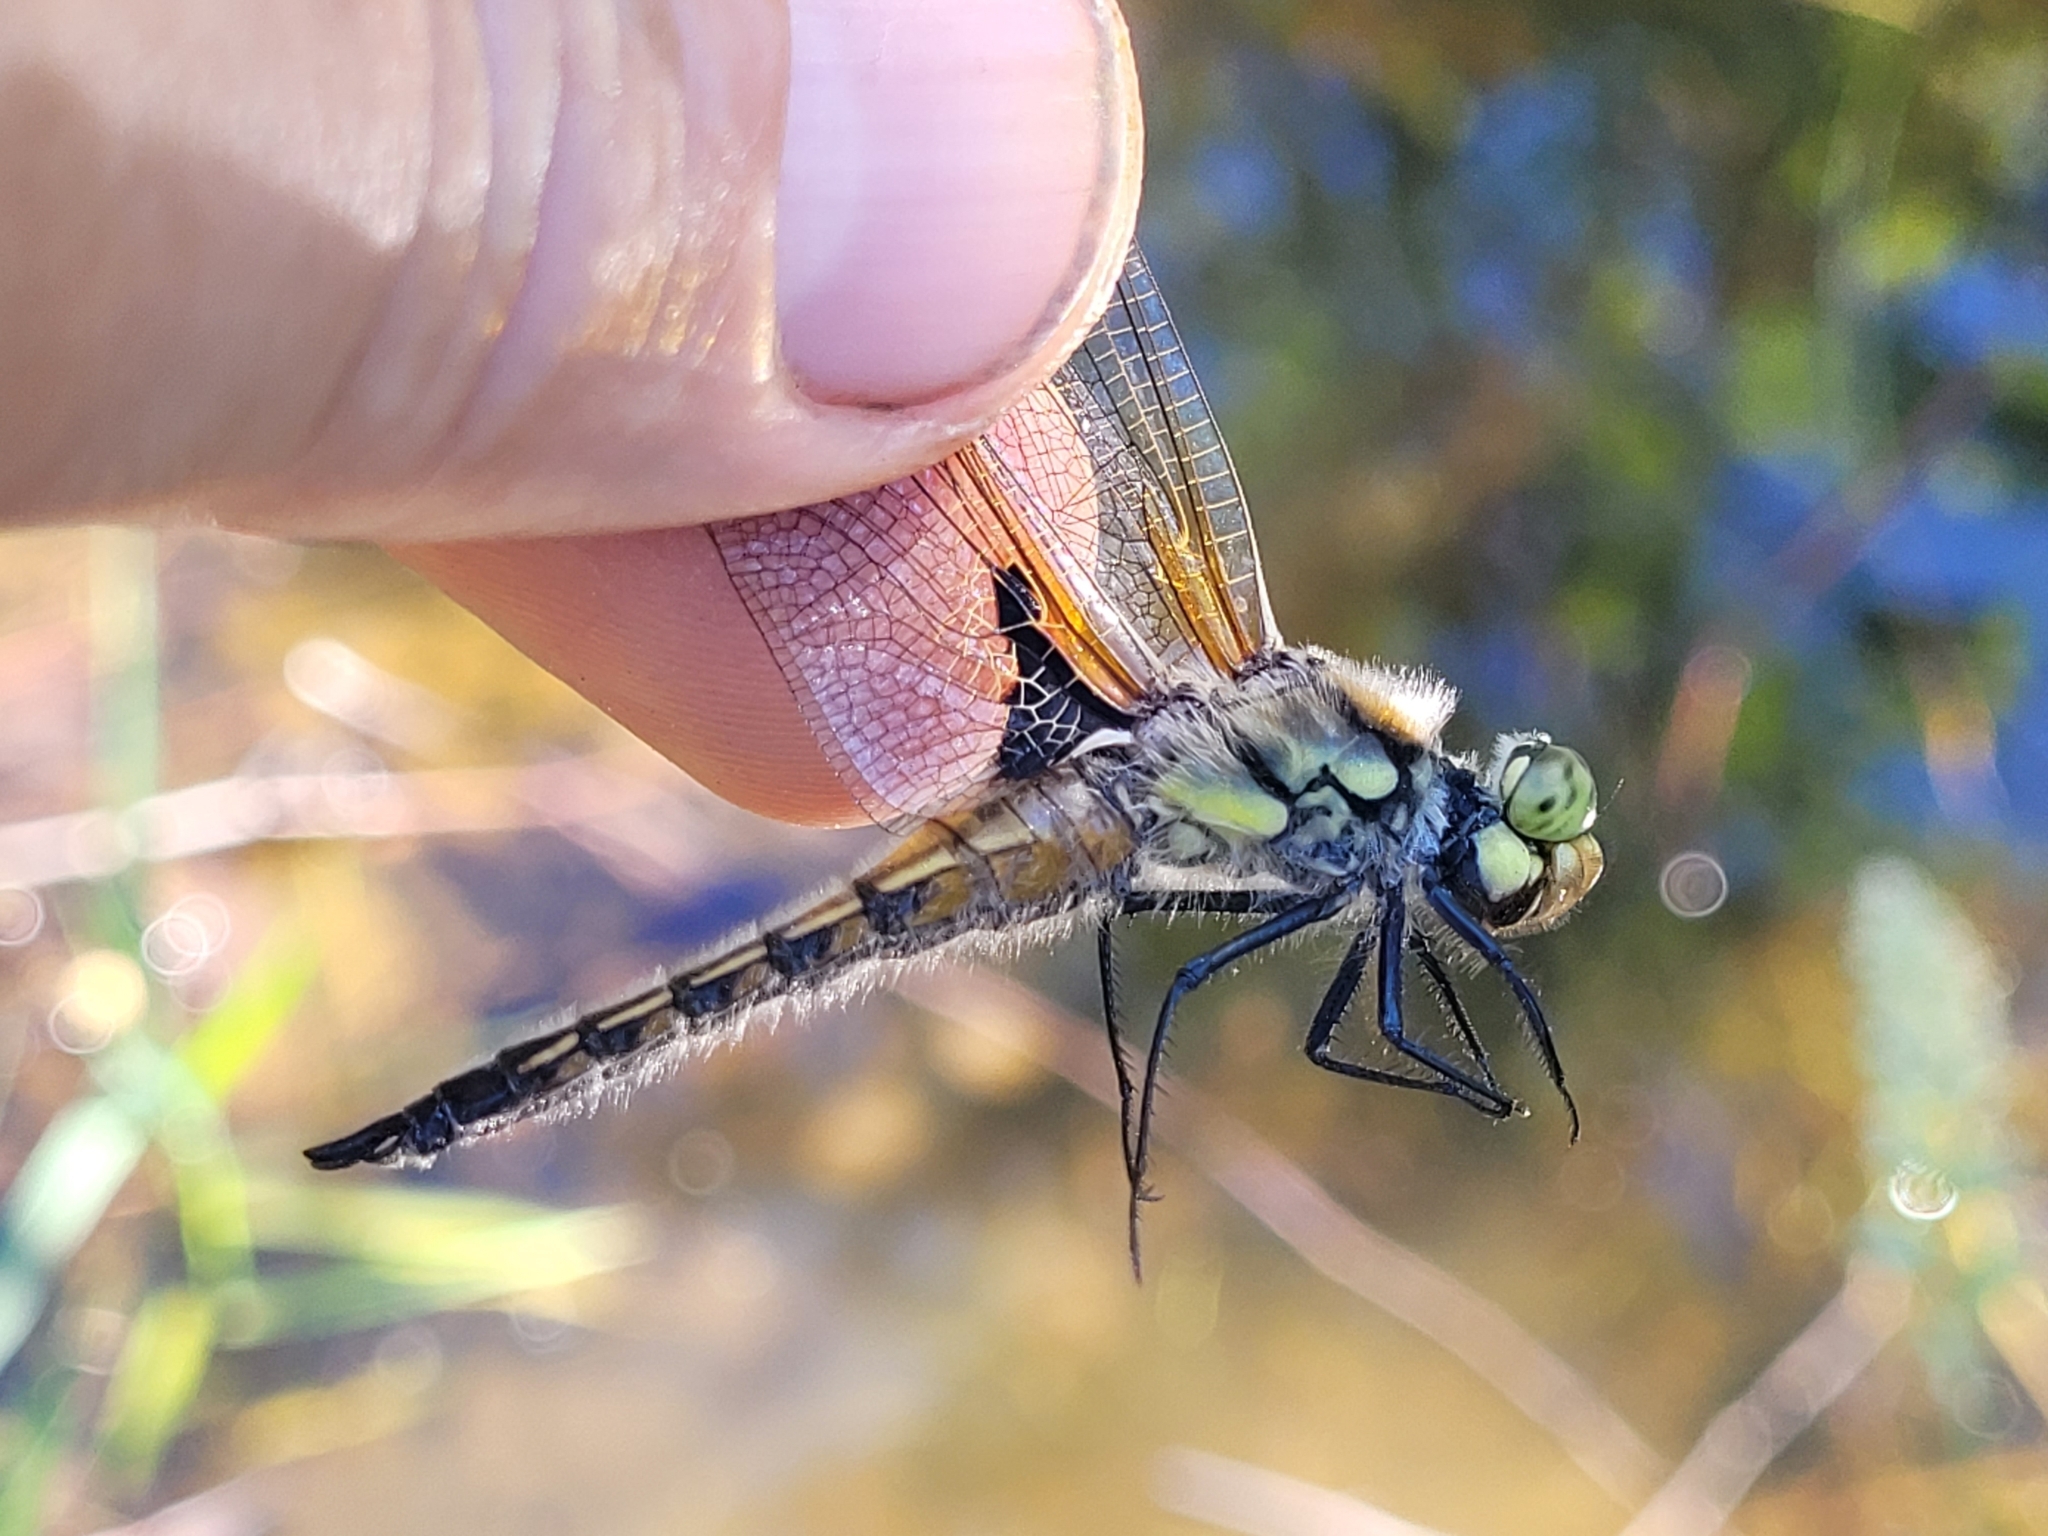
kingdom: Animalia
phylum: Arthropoda
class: Insecta
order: Odonata
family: Libellulidae
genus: Libellula
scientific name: Libellula quadrimaculata
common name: Four-spotted chaser
